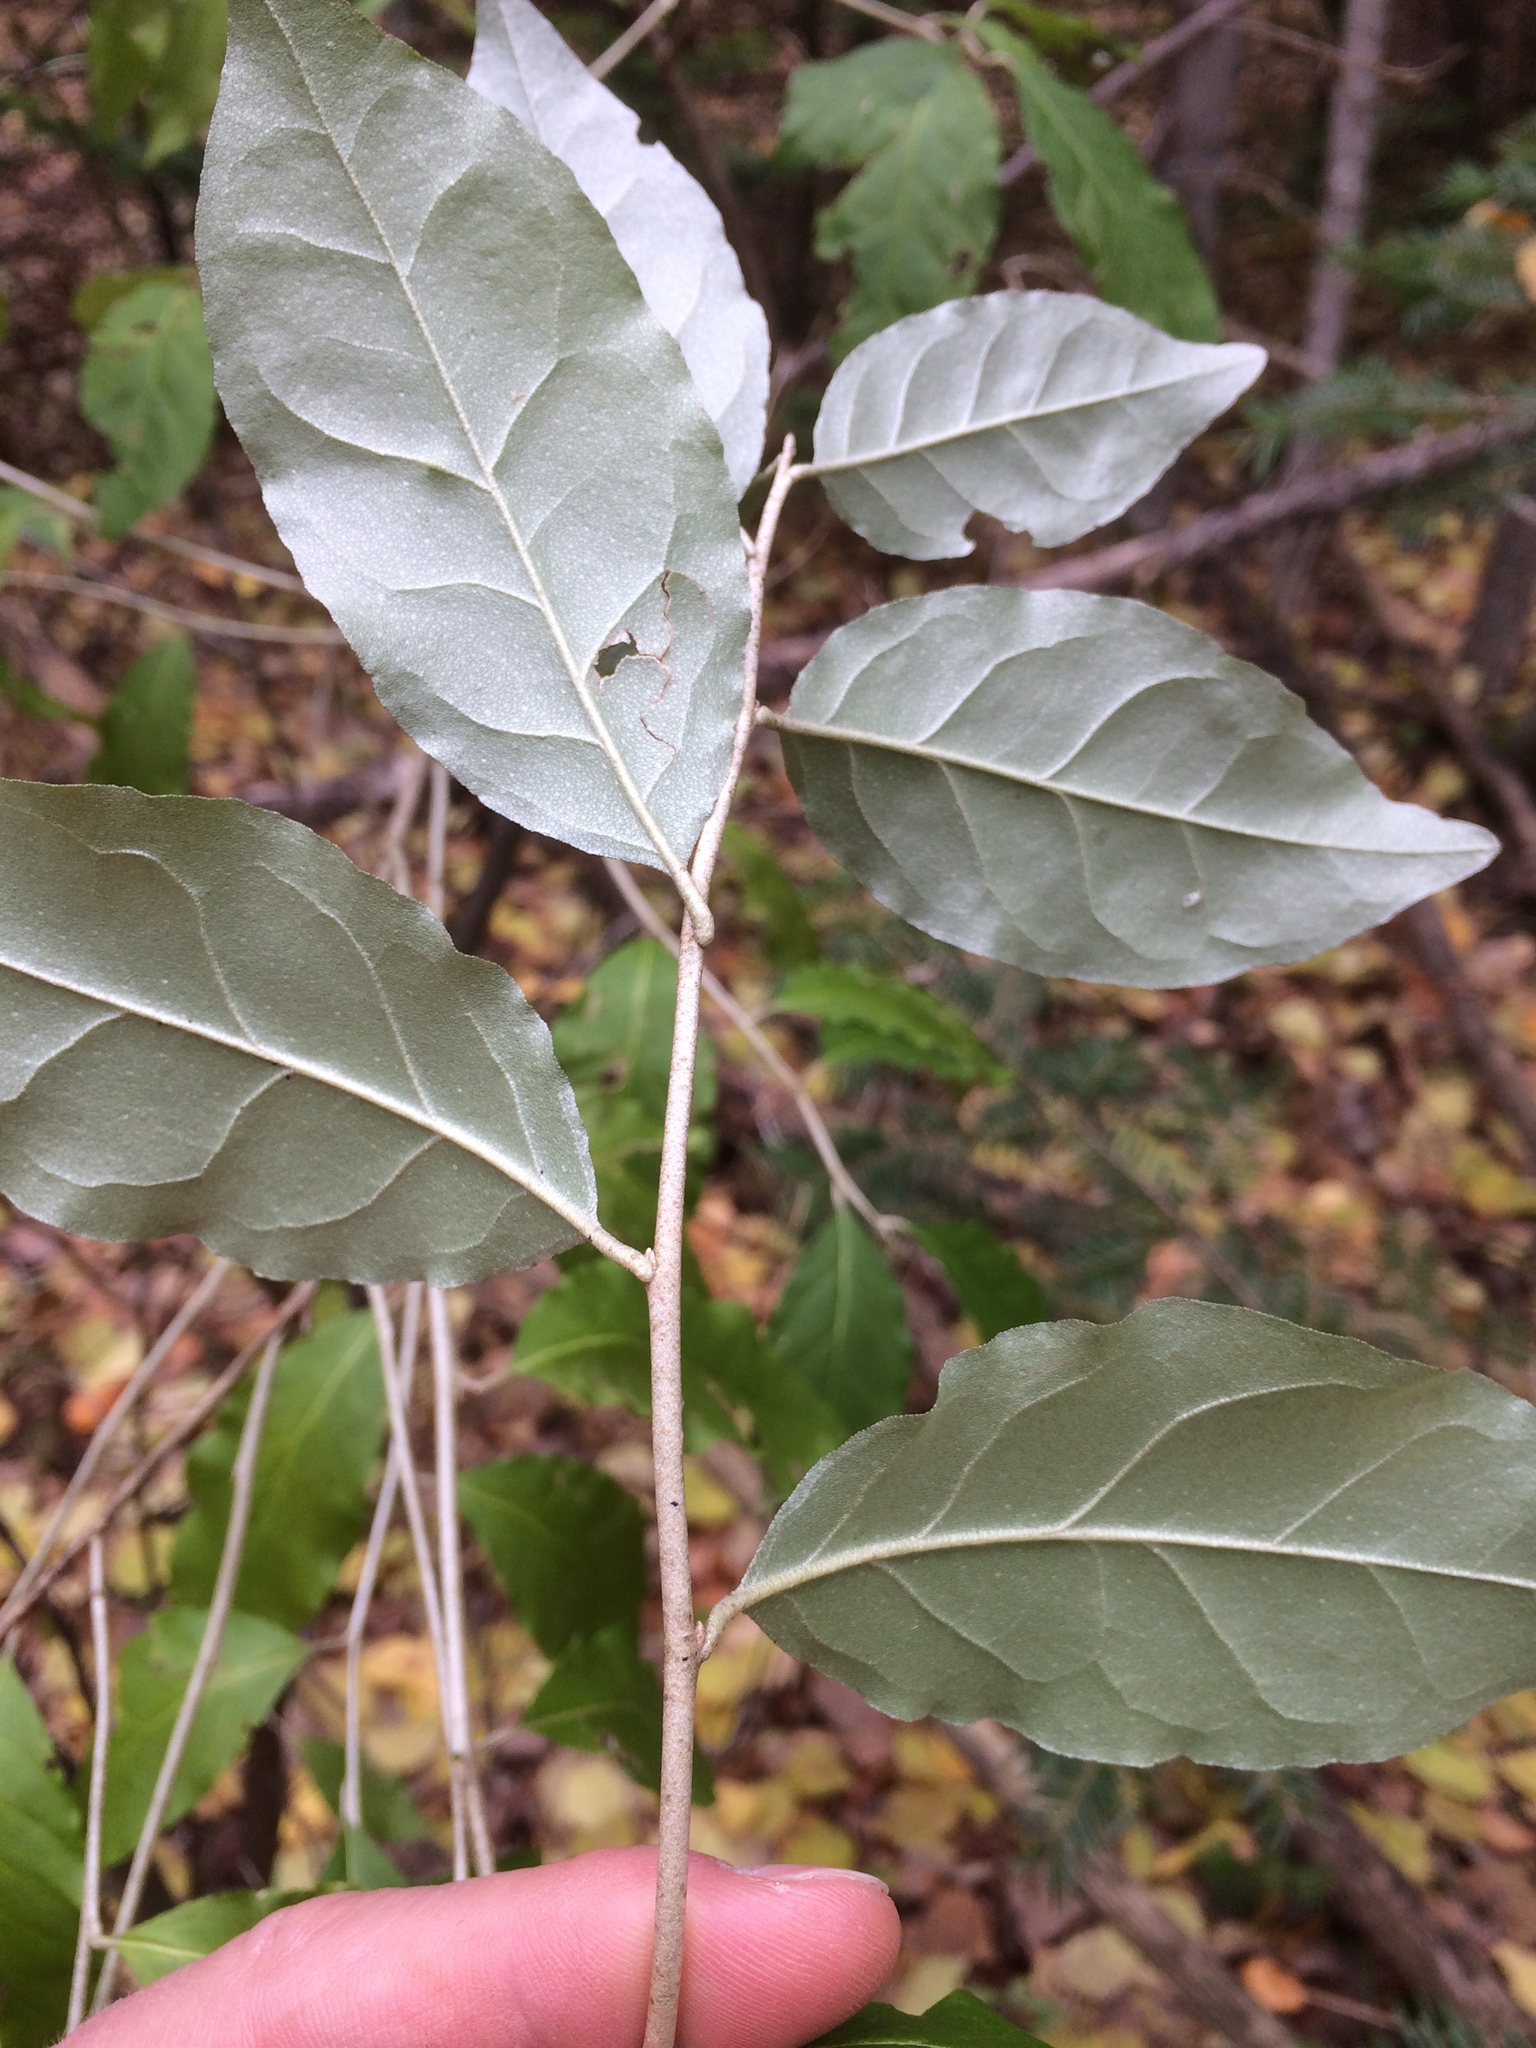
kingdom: Plantae
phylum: Tracheophyta
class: Magnoliopsida
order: Rosales
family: Elaeagnaceae
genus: Elaeagnus
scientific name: Elaeagnus umbellata
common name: Autumn olive
